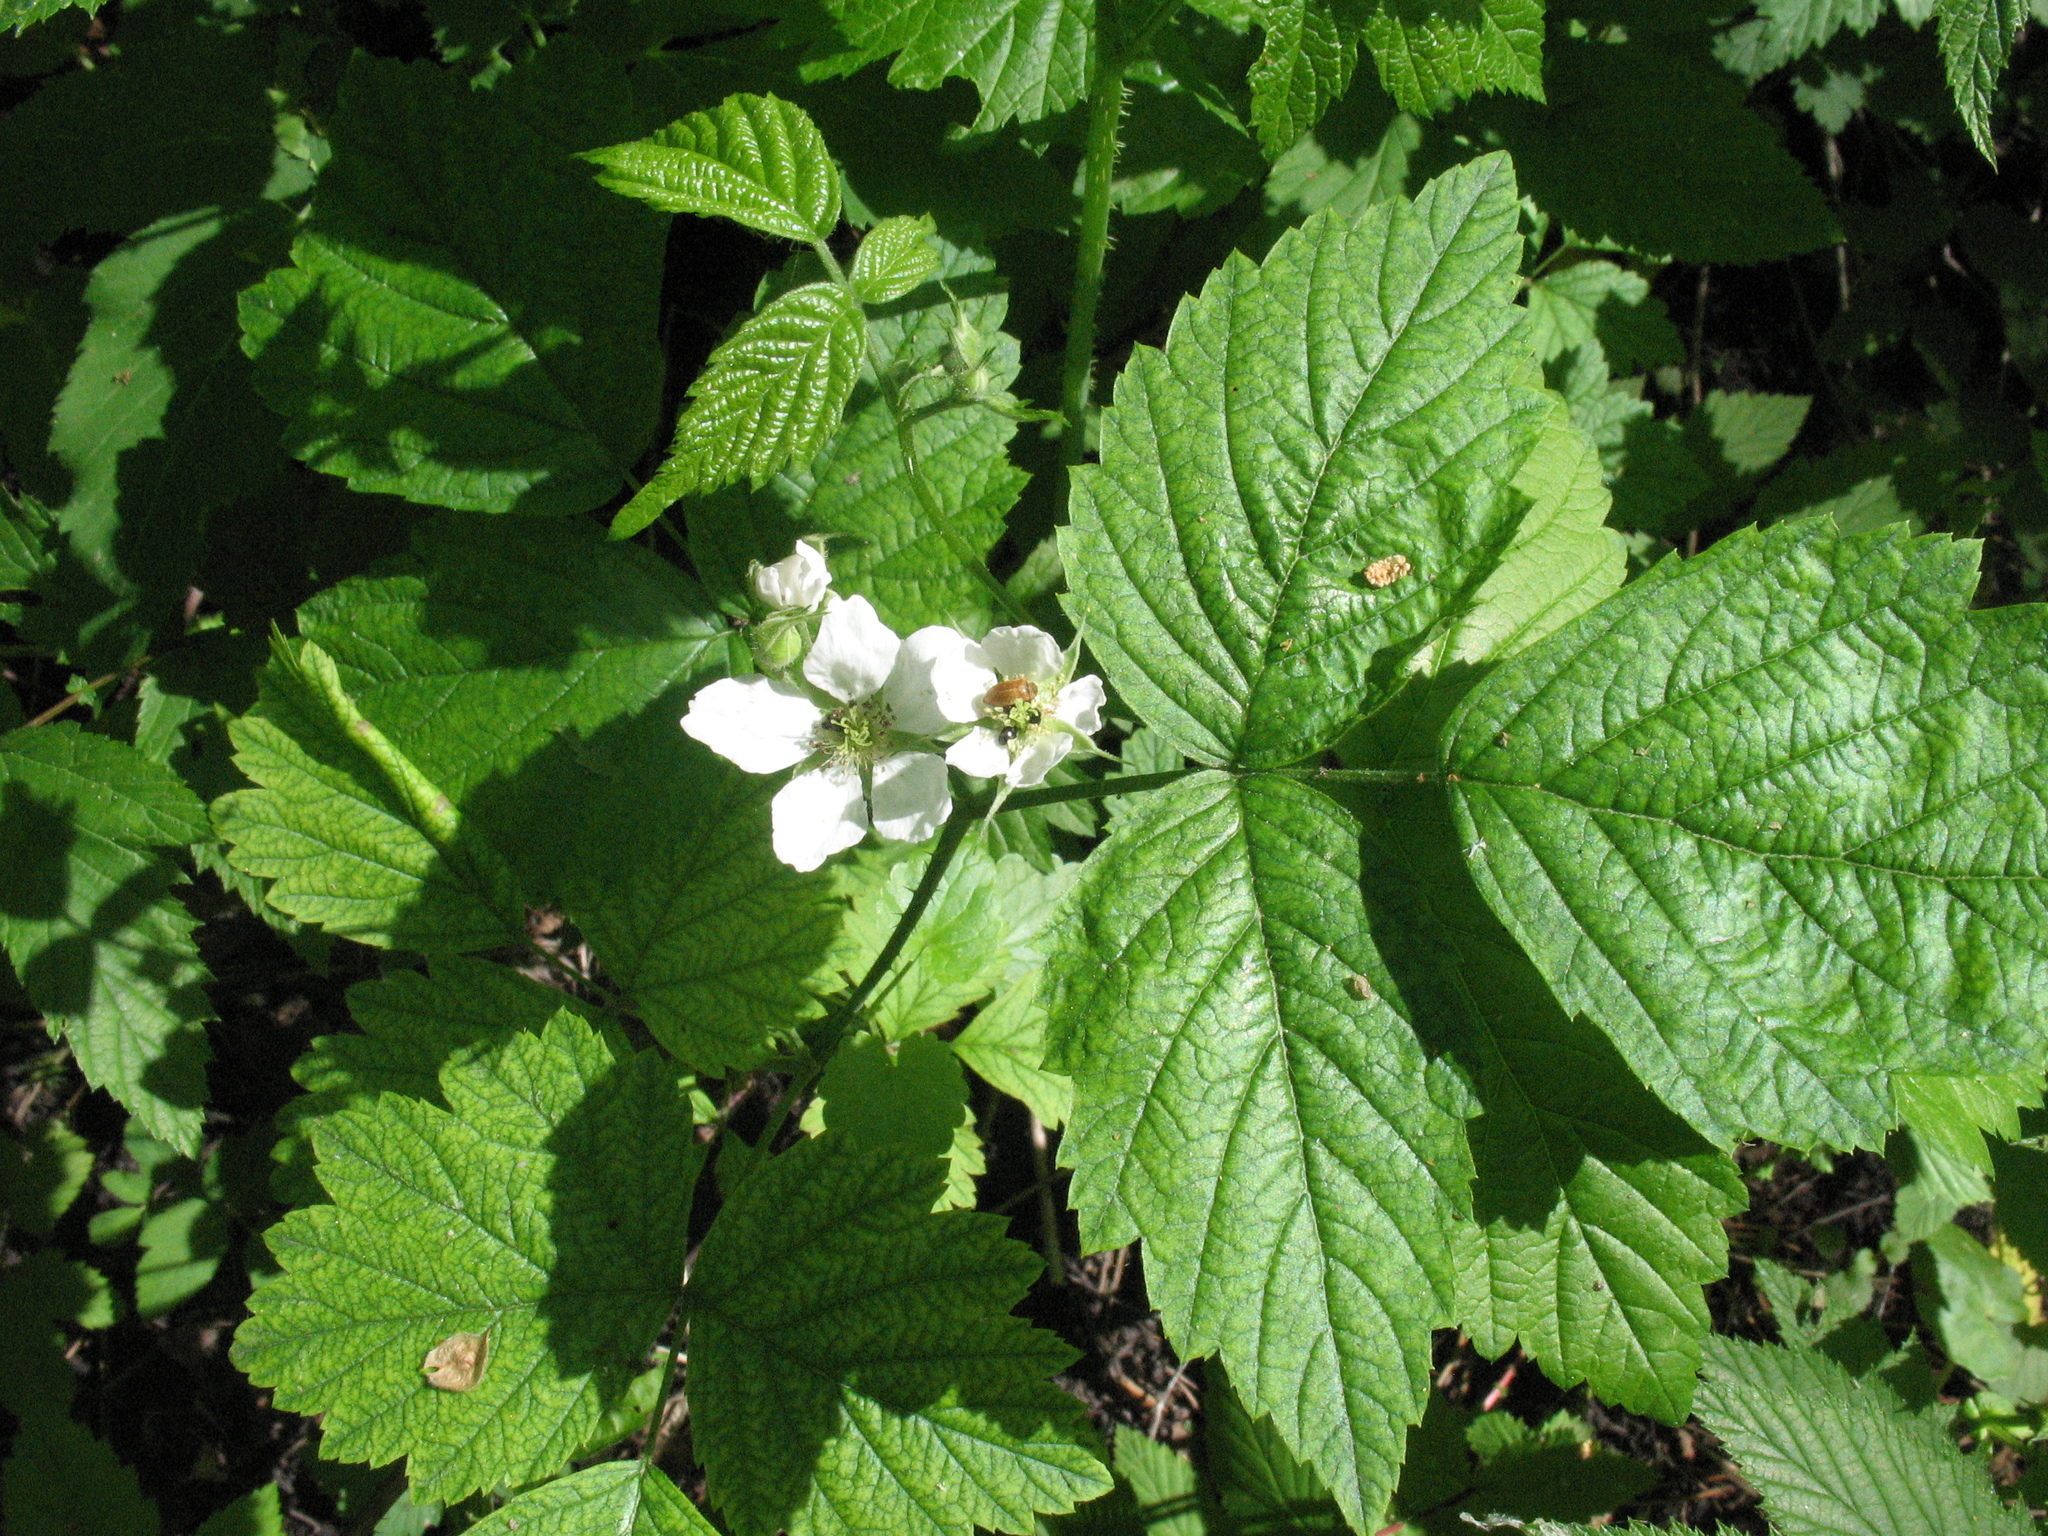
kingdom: Plantae
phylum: Tracheophyta
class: Magnoliopsida
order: Rosales
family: Rosaceae
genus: Rubus
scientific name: Rubus caesius
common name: Dewberry
